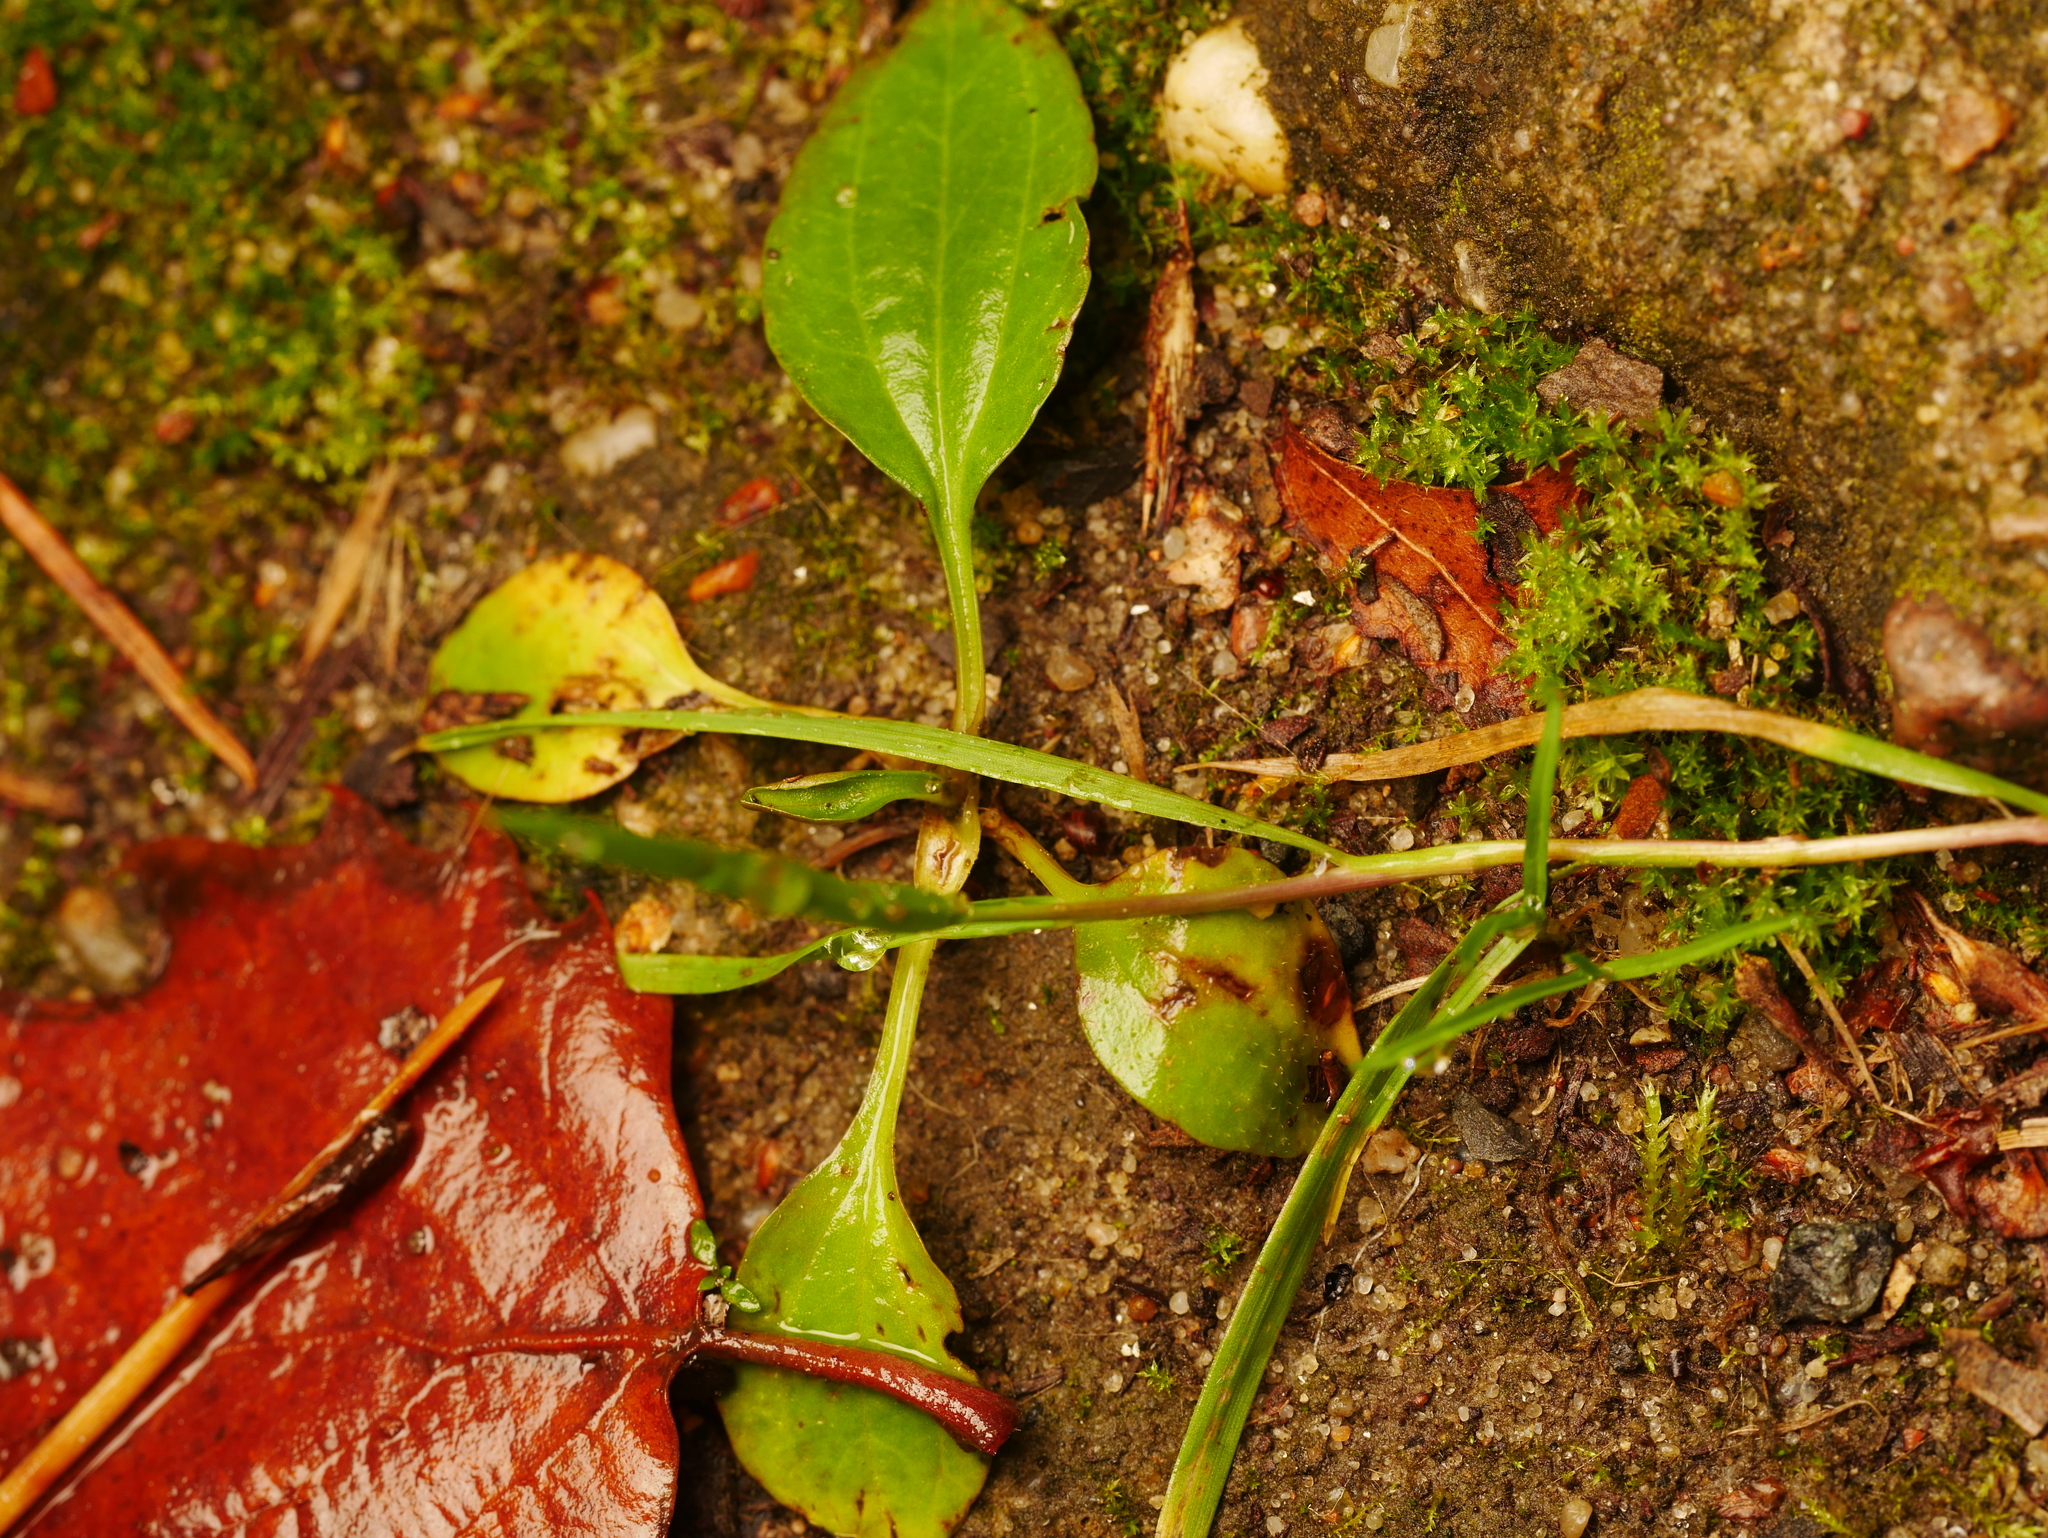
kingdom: Plantae
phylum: Tracheophyta
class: Magnoliopsida
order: Lamiales
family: Plantaginaceae
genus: Plantago
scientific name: Plantago major
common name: Common plantain
